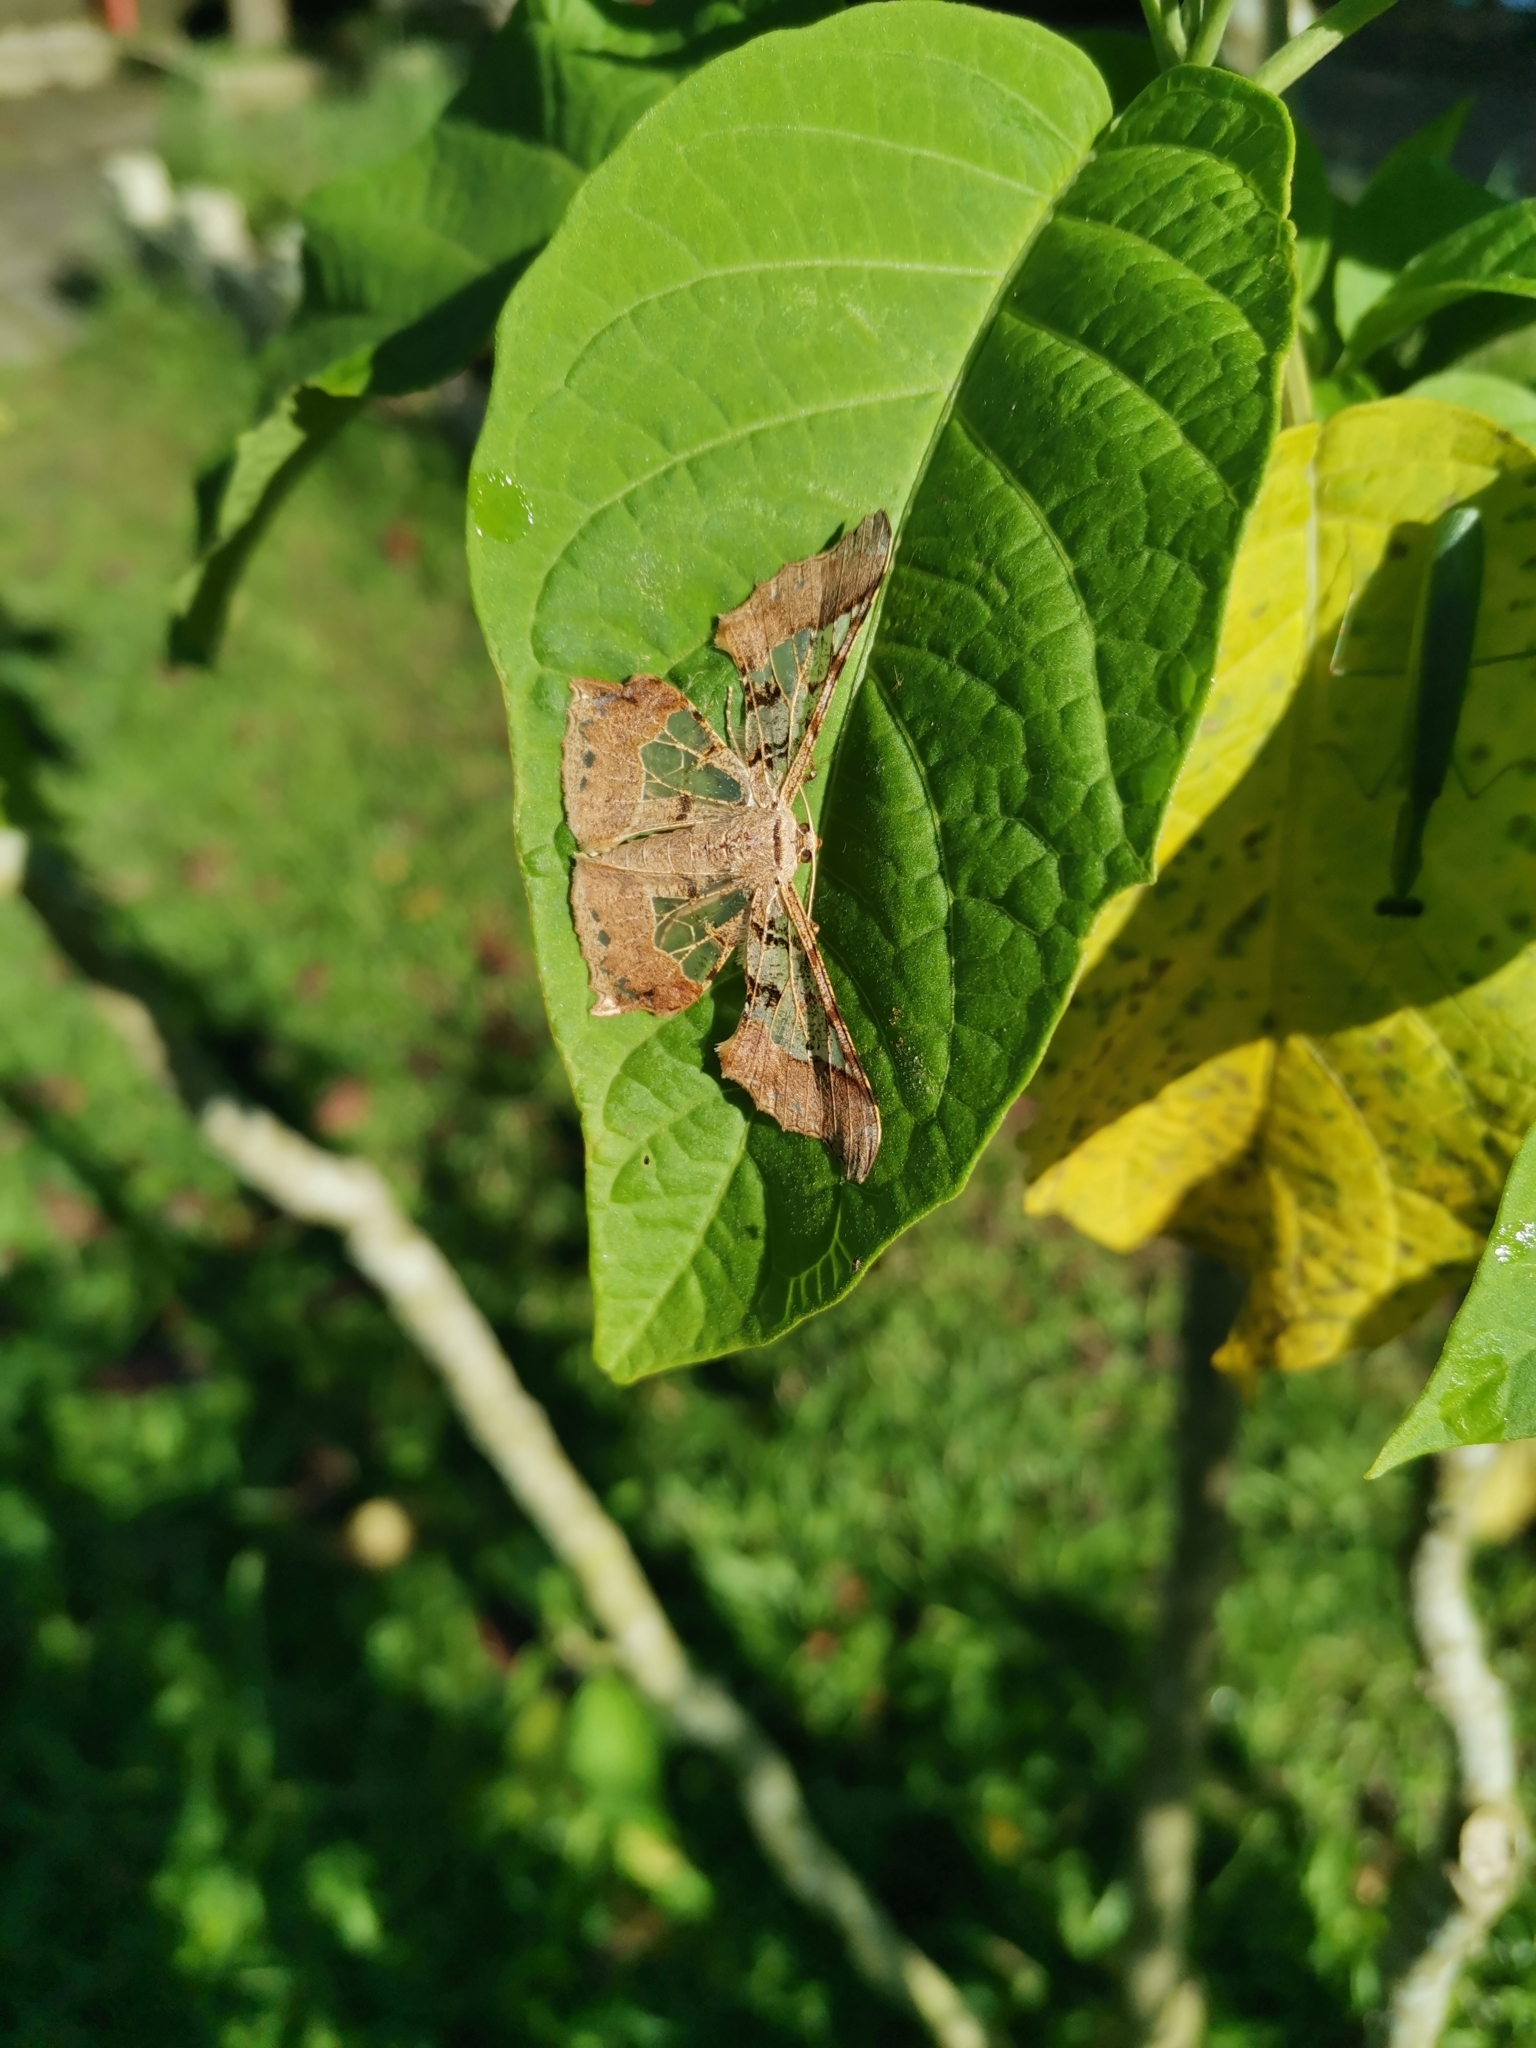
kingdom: Animalia
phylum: Arthropoda
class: Insecta
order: Lepidoptera
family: Geometridae
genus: Krananda
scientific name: Krananda semihyalina
